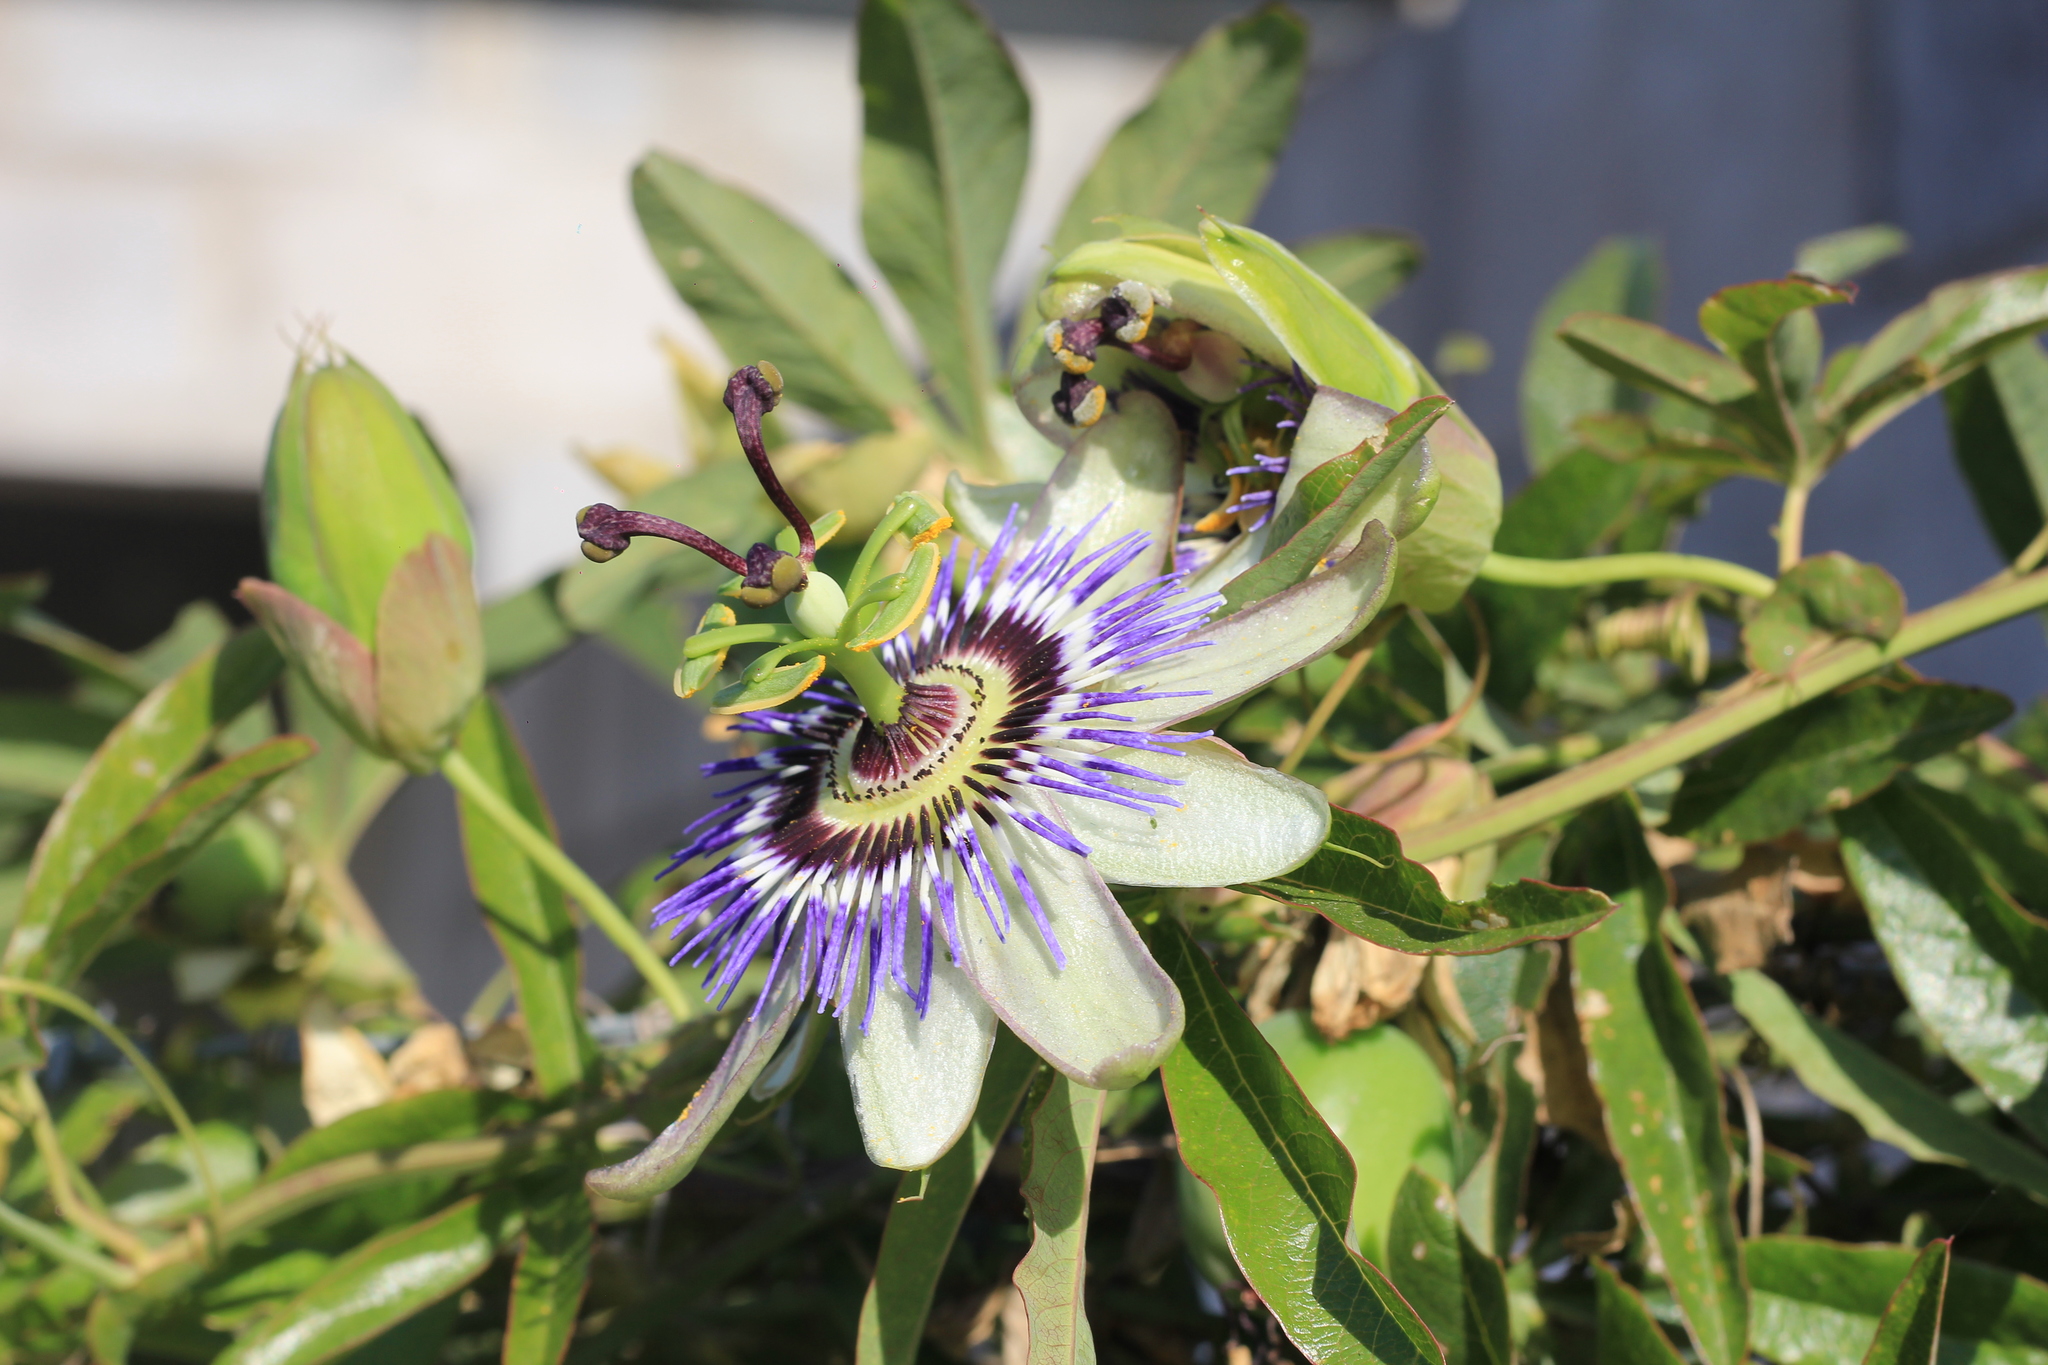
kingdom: Plantae
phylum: Tracheophyta
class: Magnoliopsida
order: Malpighiales
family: Passifloraceae
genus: Passiflora
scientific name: Passiflora caerulea
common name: Blue passionflower
